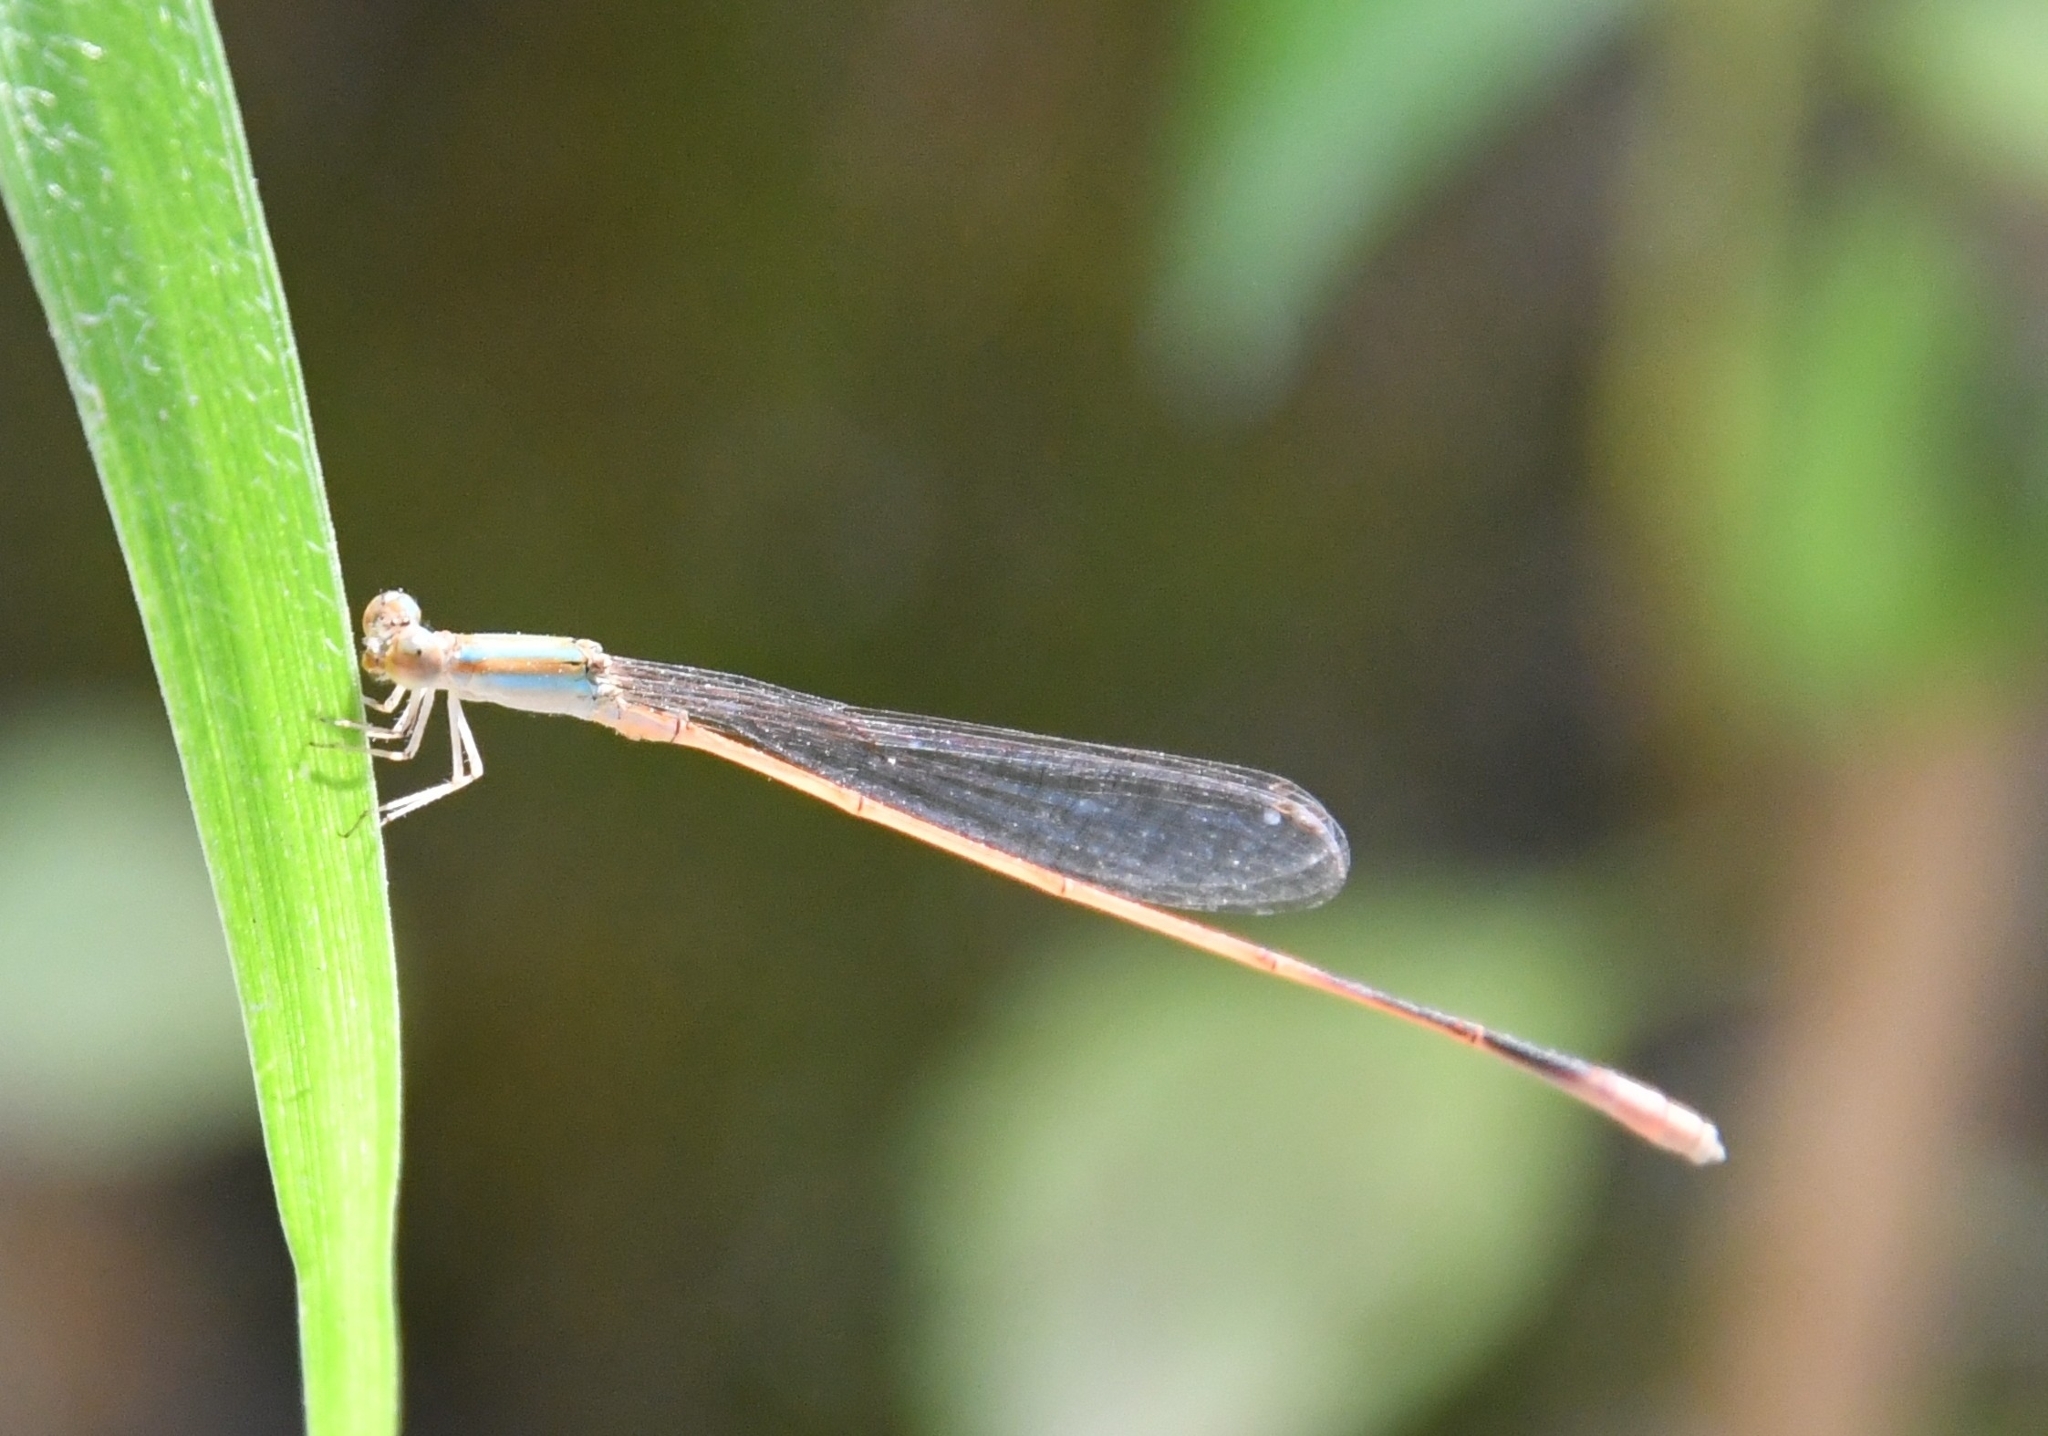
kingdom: Animalia
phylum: Arthropoda
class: Insecta
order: Odonata
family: Coenagrionidae
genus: Aciagrion
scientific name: Aciagrion pallidum
